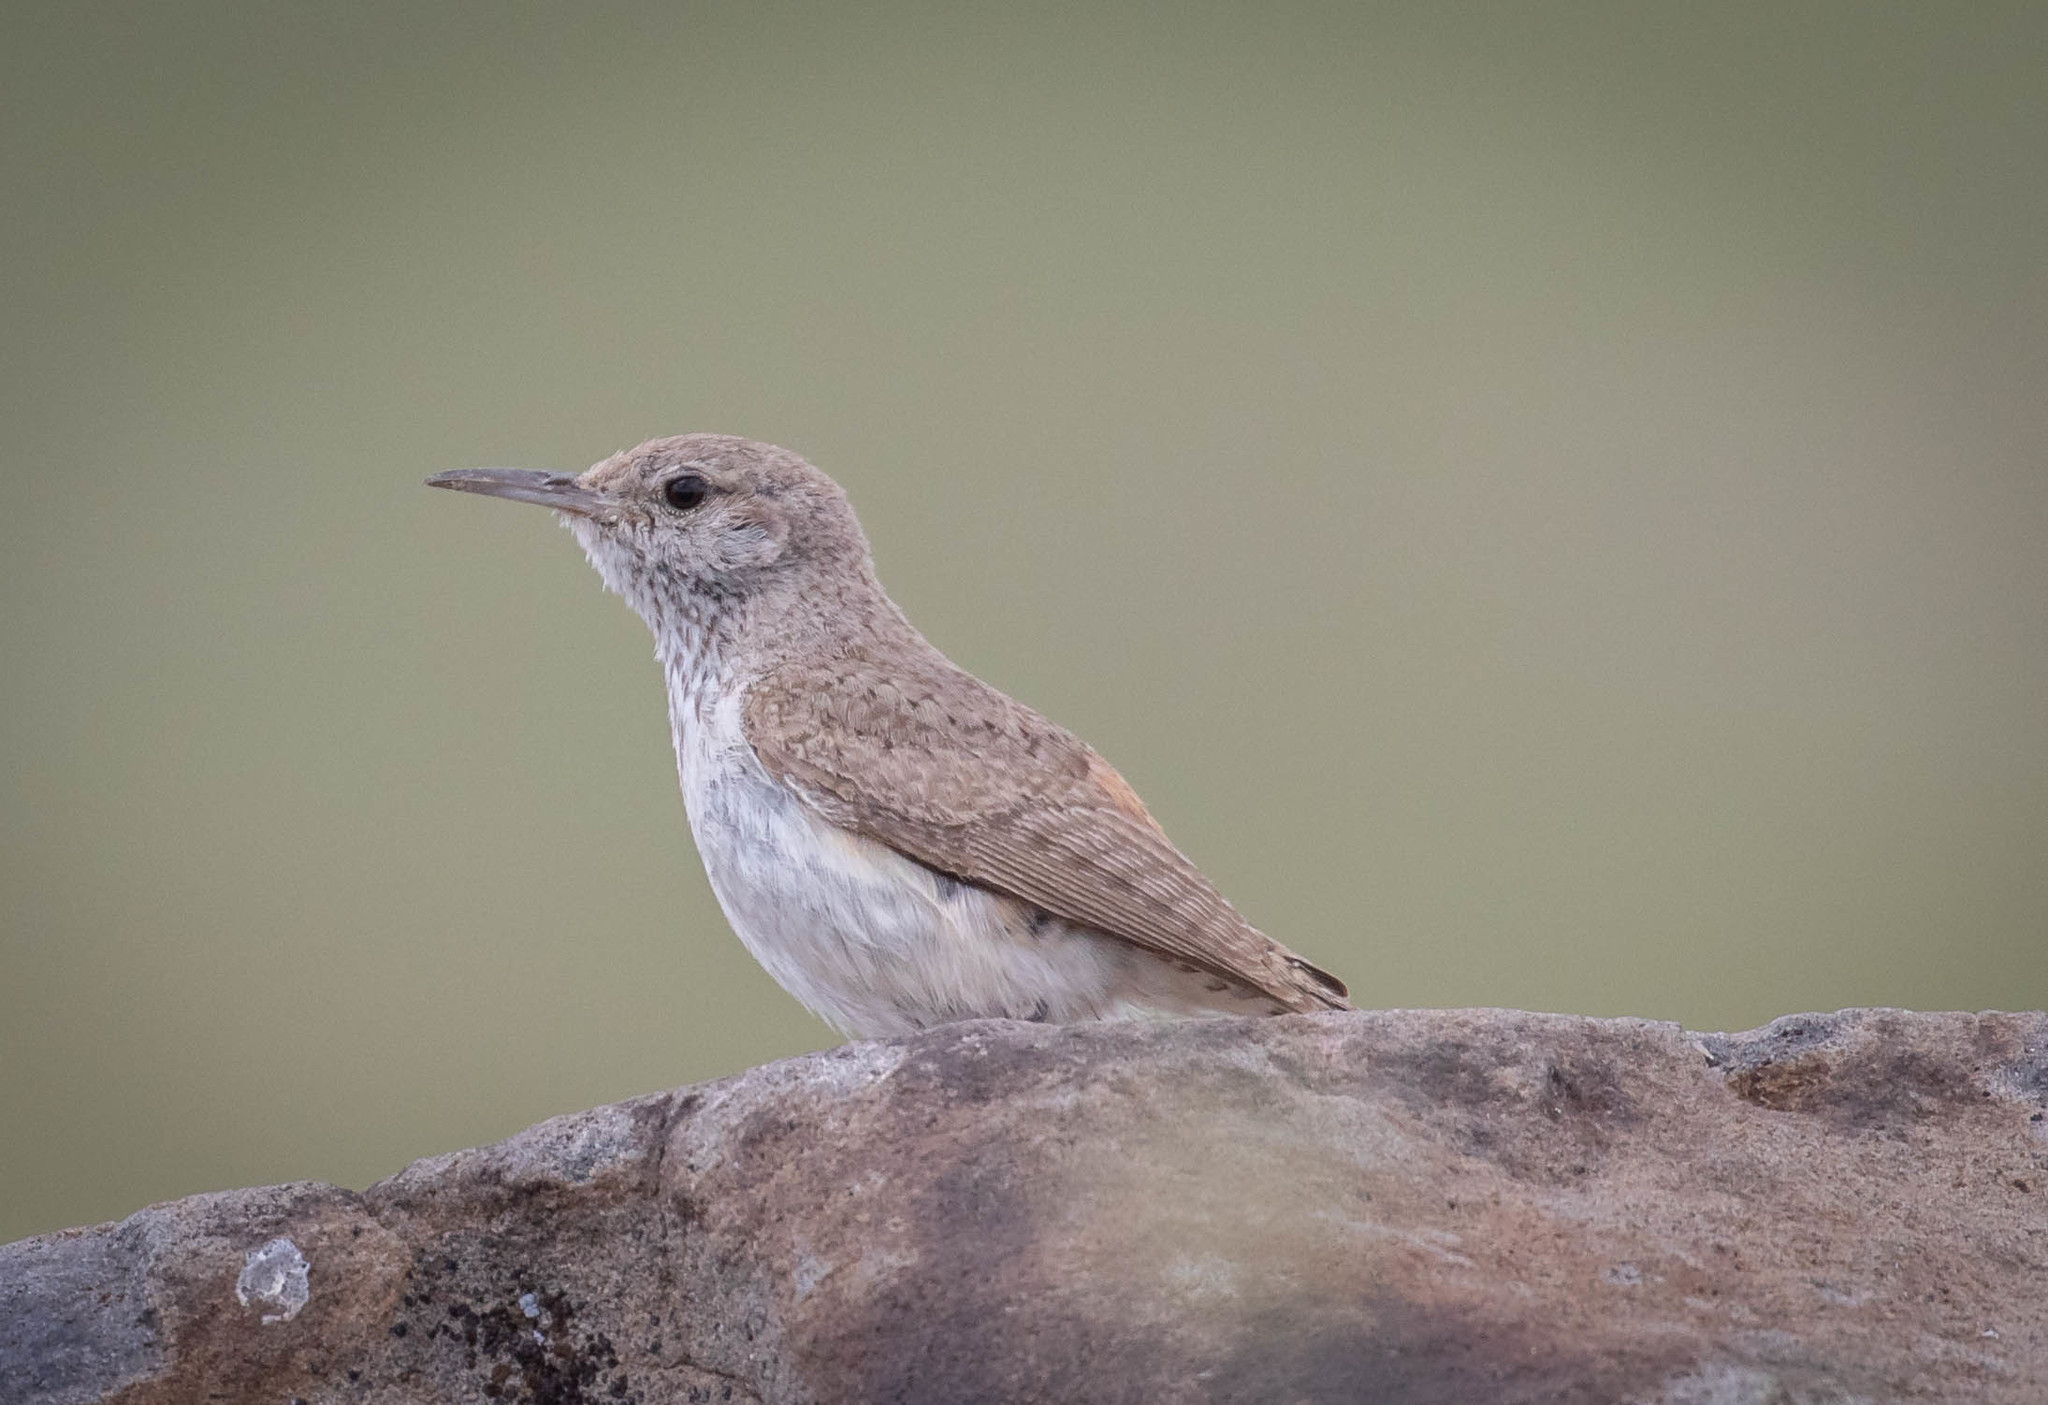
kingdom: Animalia
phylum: Chordata
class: Aves
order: Passeriformes
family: Troglodytidae
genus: Salpinctes
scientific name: Salpinctes obsoletus
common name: Rock wren
